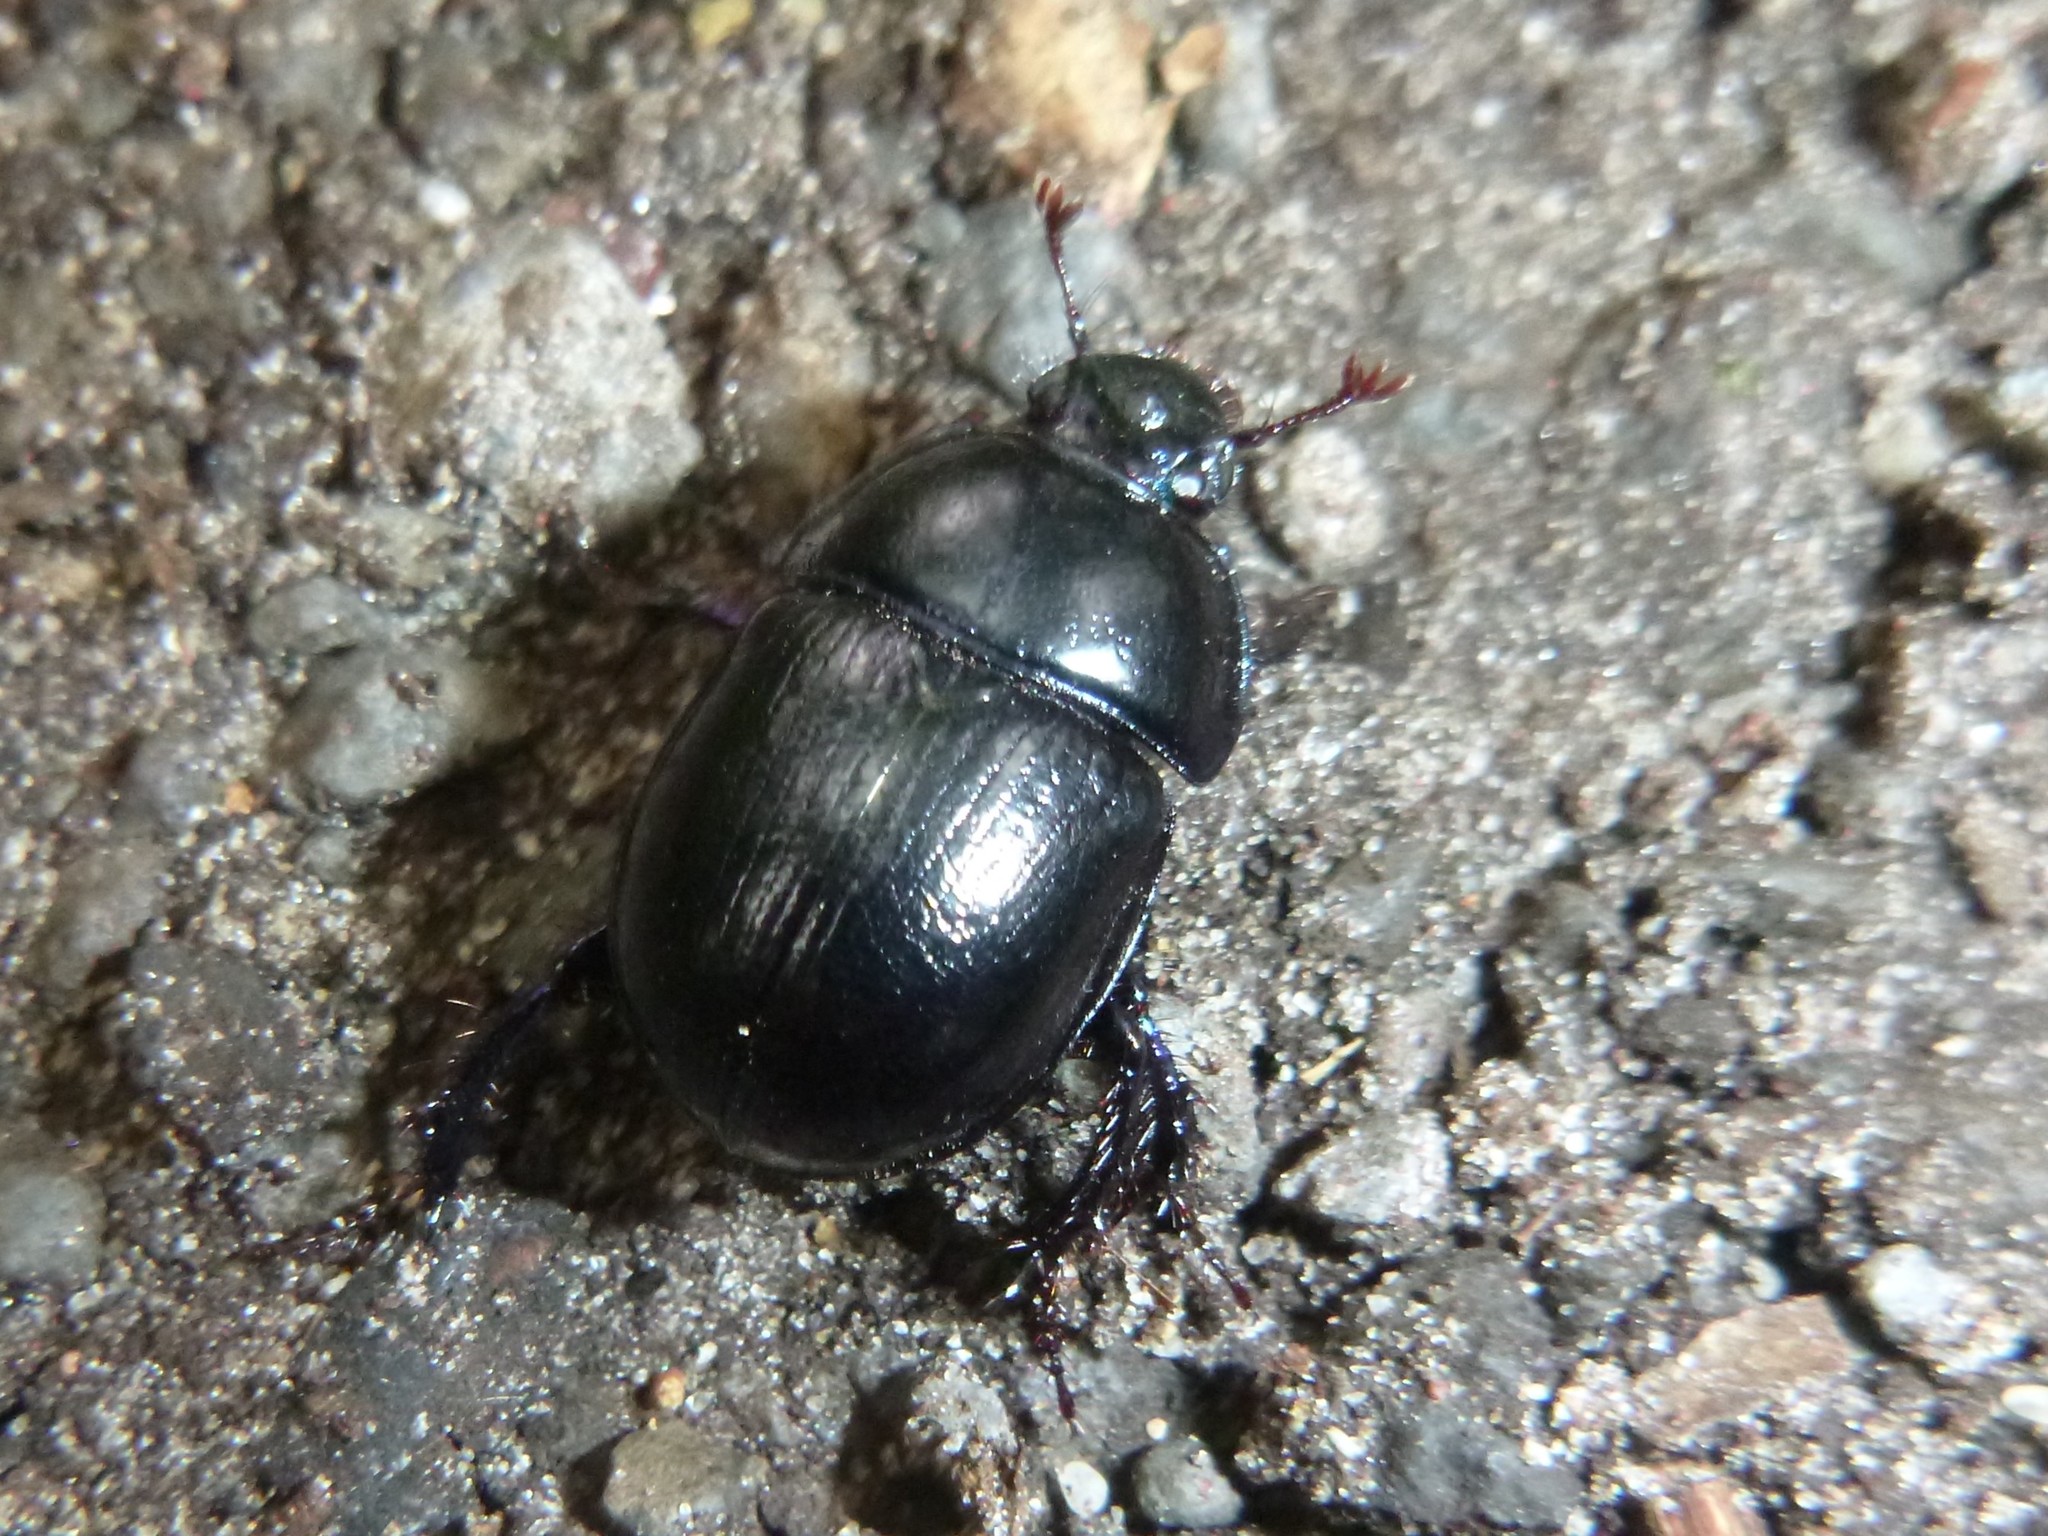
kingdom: Animalia
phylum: Arthropoda
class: Insecta
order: Coleoptera
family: Geotrupidae
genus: Anoplotrupes
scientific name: Anoplotrupes stercorosus
